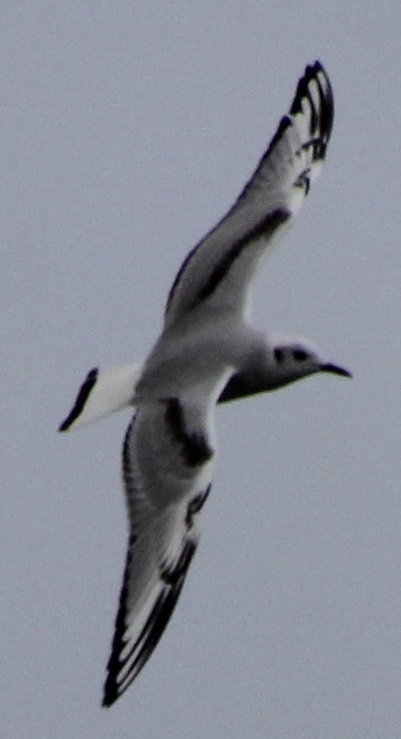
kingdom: Animalia
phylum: Chordata
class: Aves
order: Charadriiformes
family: Laridae
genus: Chroicocephalus
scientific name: Chroicocephalus philadelphia
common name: Bonaparte's gull
